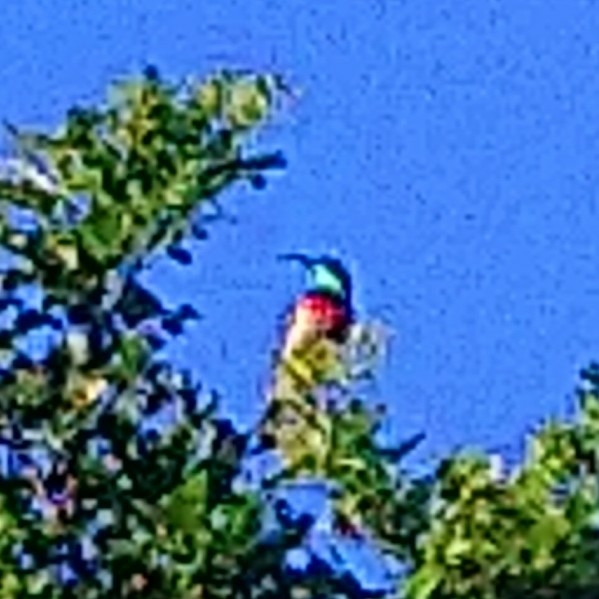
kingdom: Animalia
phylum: Chordata
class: Aves
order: Passeriformes
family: Nectariniidae
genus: Cinnyris
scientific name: Cinnyris afer
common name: Greater double-collared sunbird
